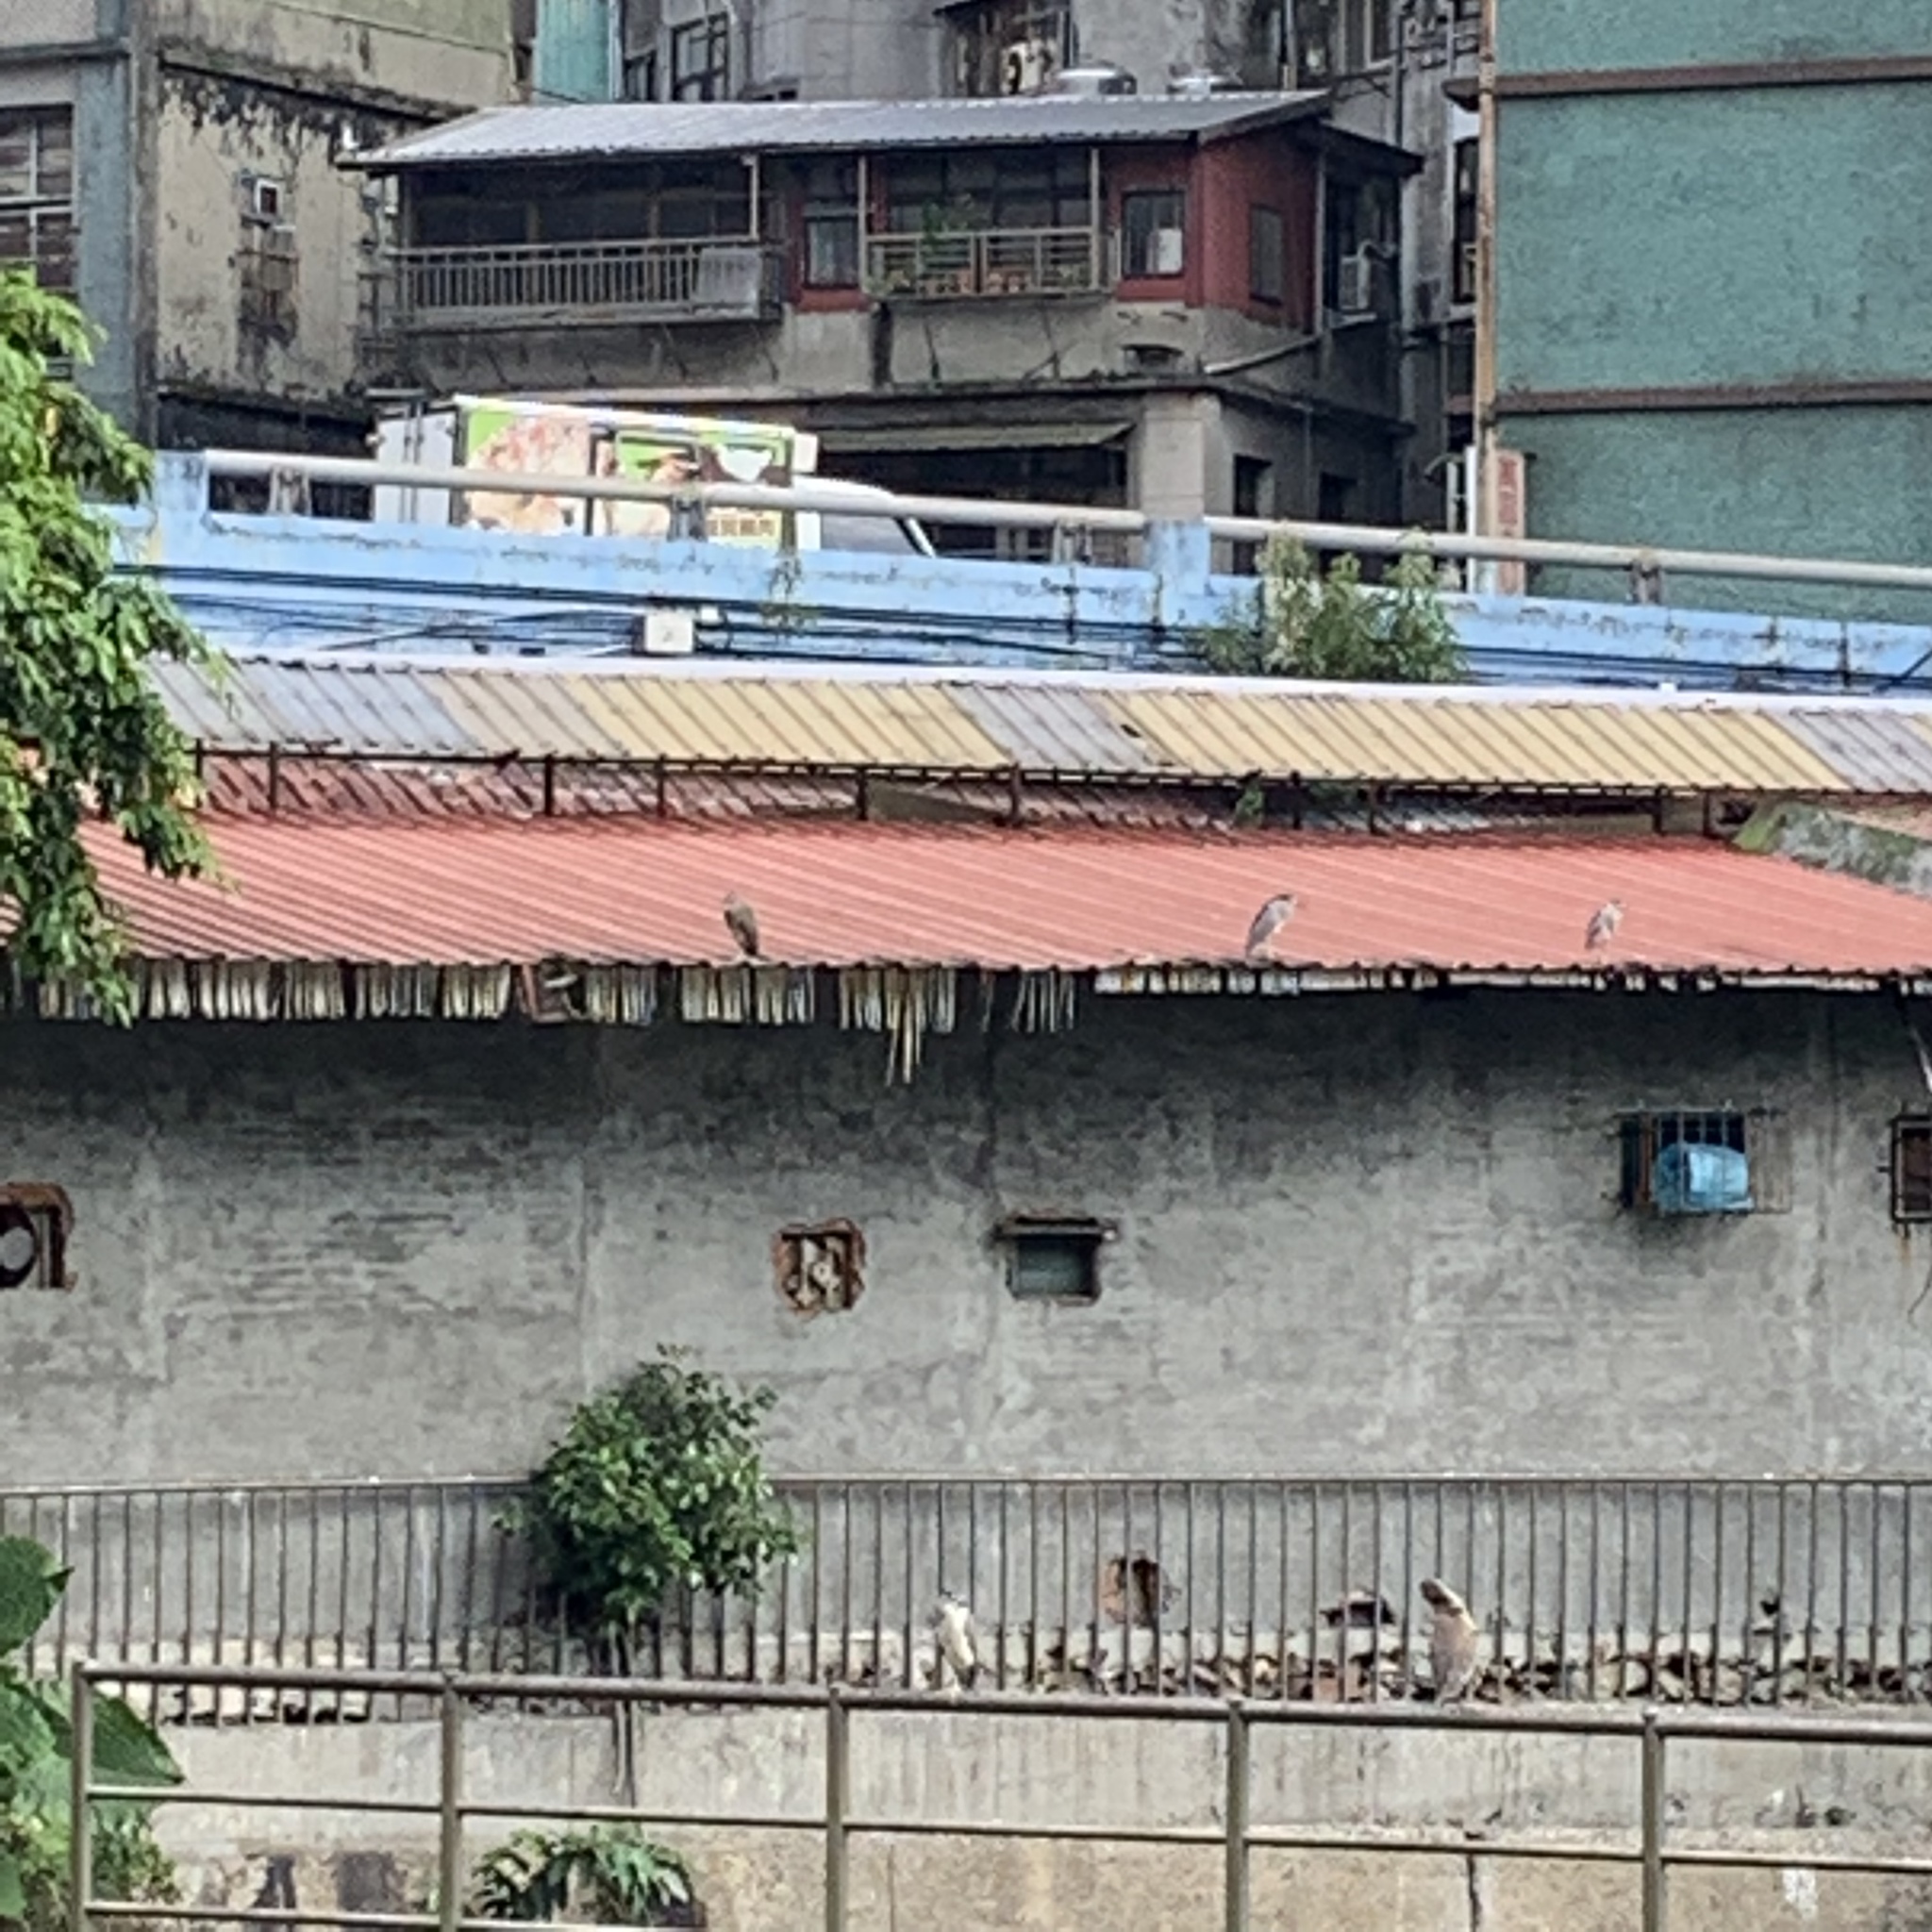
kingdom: Animalia
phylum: Chordata
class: Aves
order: Pelecaniformes
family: Ardeidae
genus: Nycticorax
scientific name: Nycticorax nycticorax
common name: Black-crowned night heron
